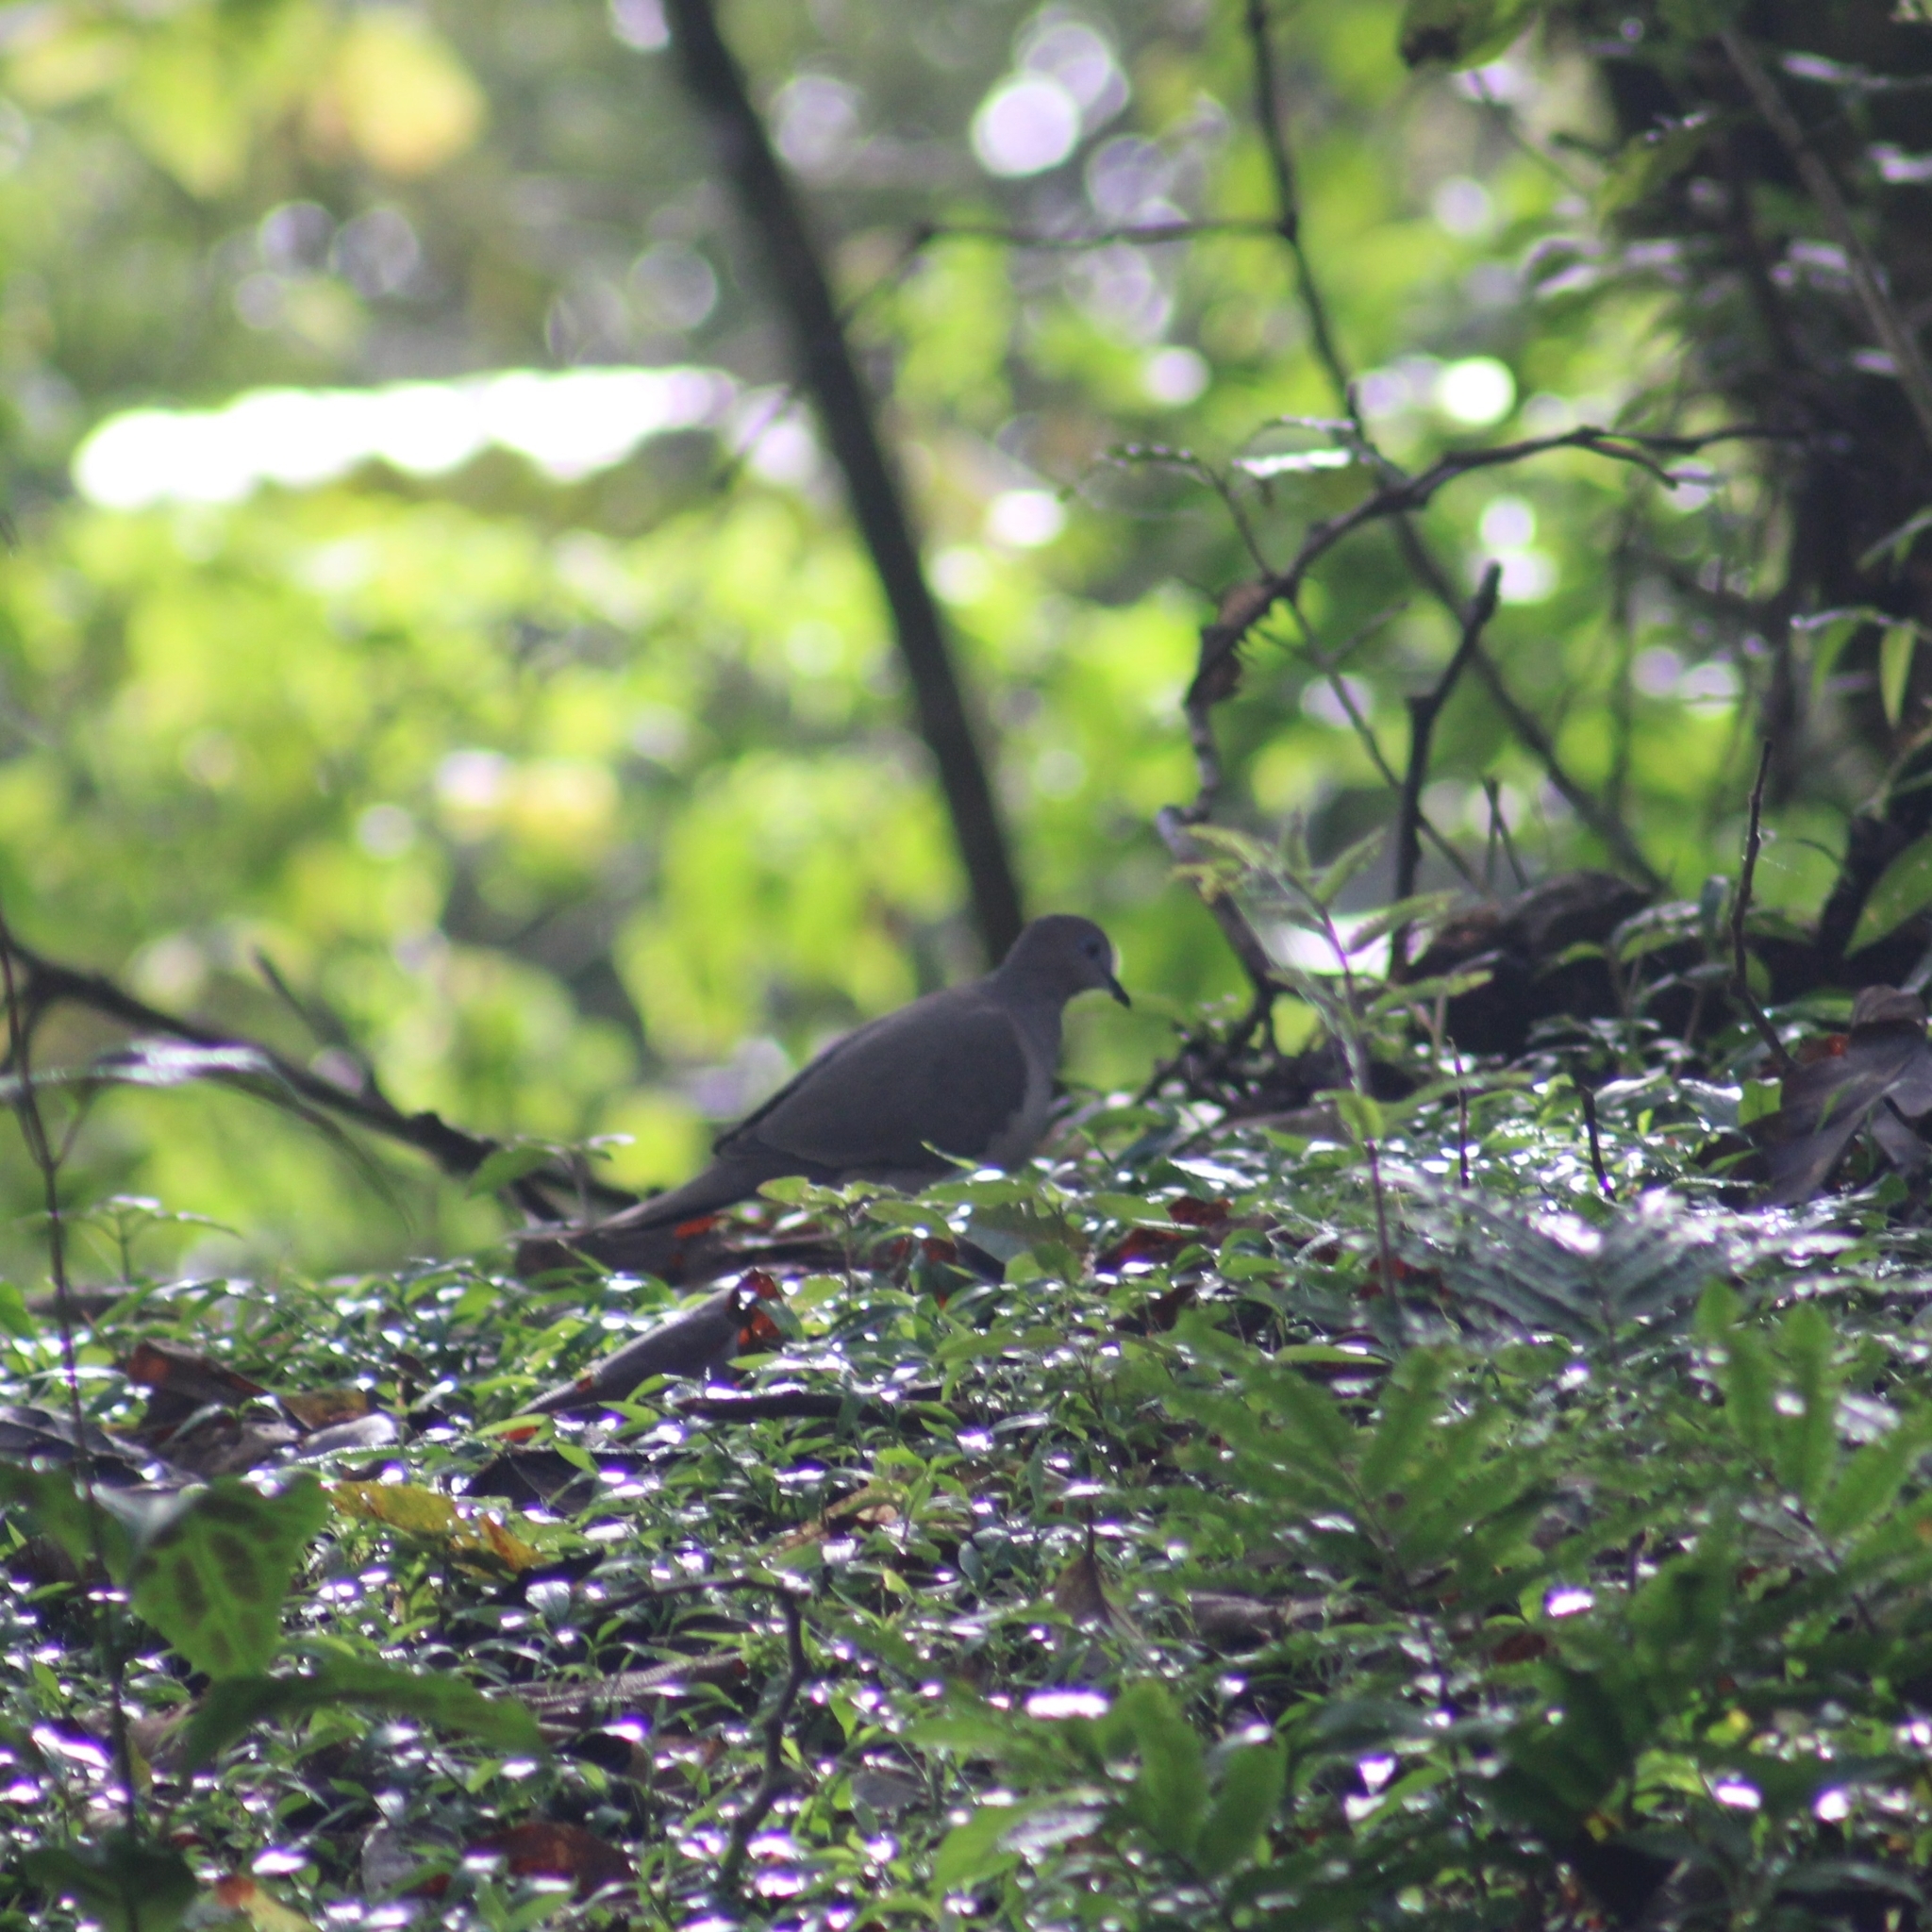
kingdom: Animalia
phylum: Chordata
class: Aves
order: Columbiformes
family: Columbidae
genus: Leptotila
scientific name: Leptotila verreauxi
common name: White-tipped dove
